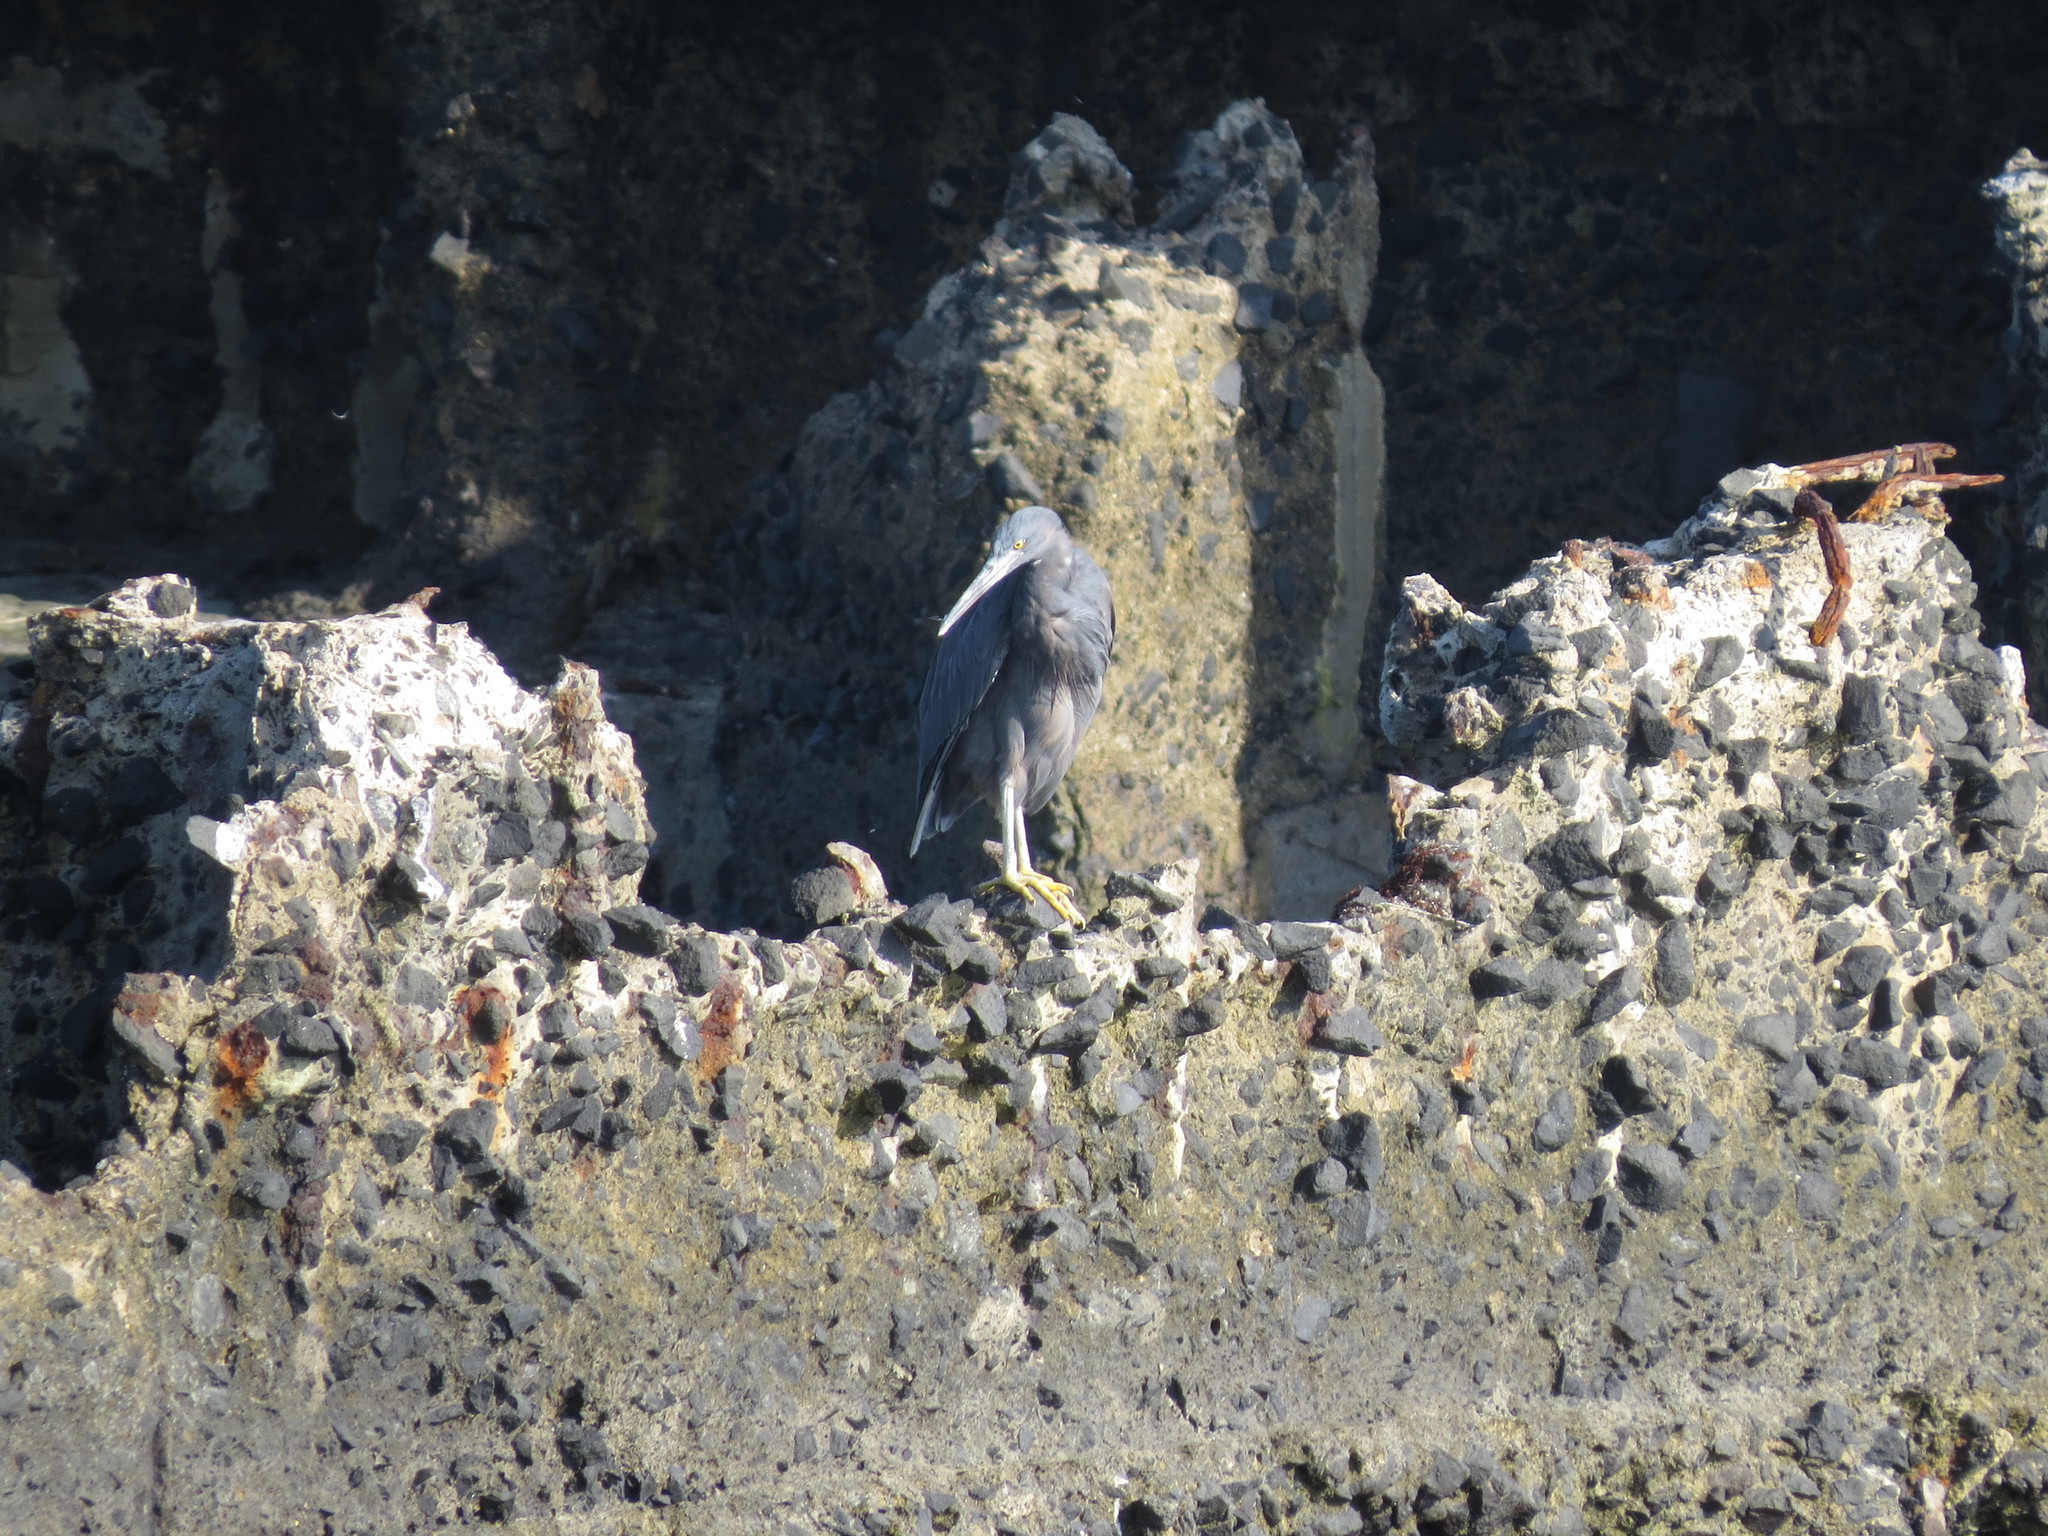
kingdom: Animalia
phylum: Chordata
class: Aves
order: Pelecaniformes
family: Ardeidae
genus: Egretta
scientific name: Egretta sacra
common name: Pacific reef heron
